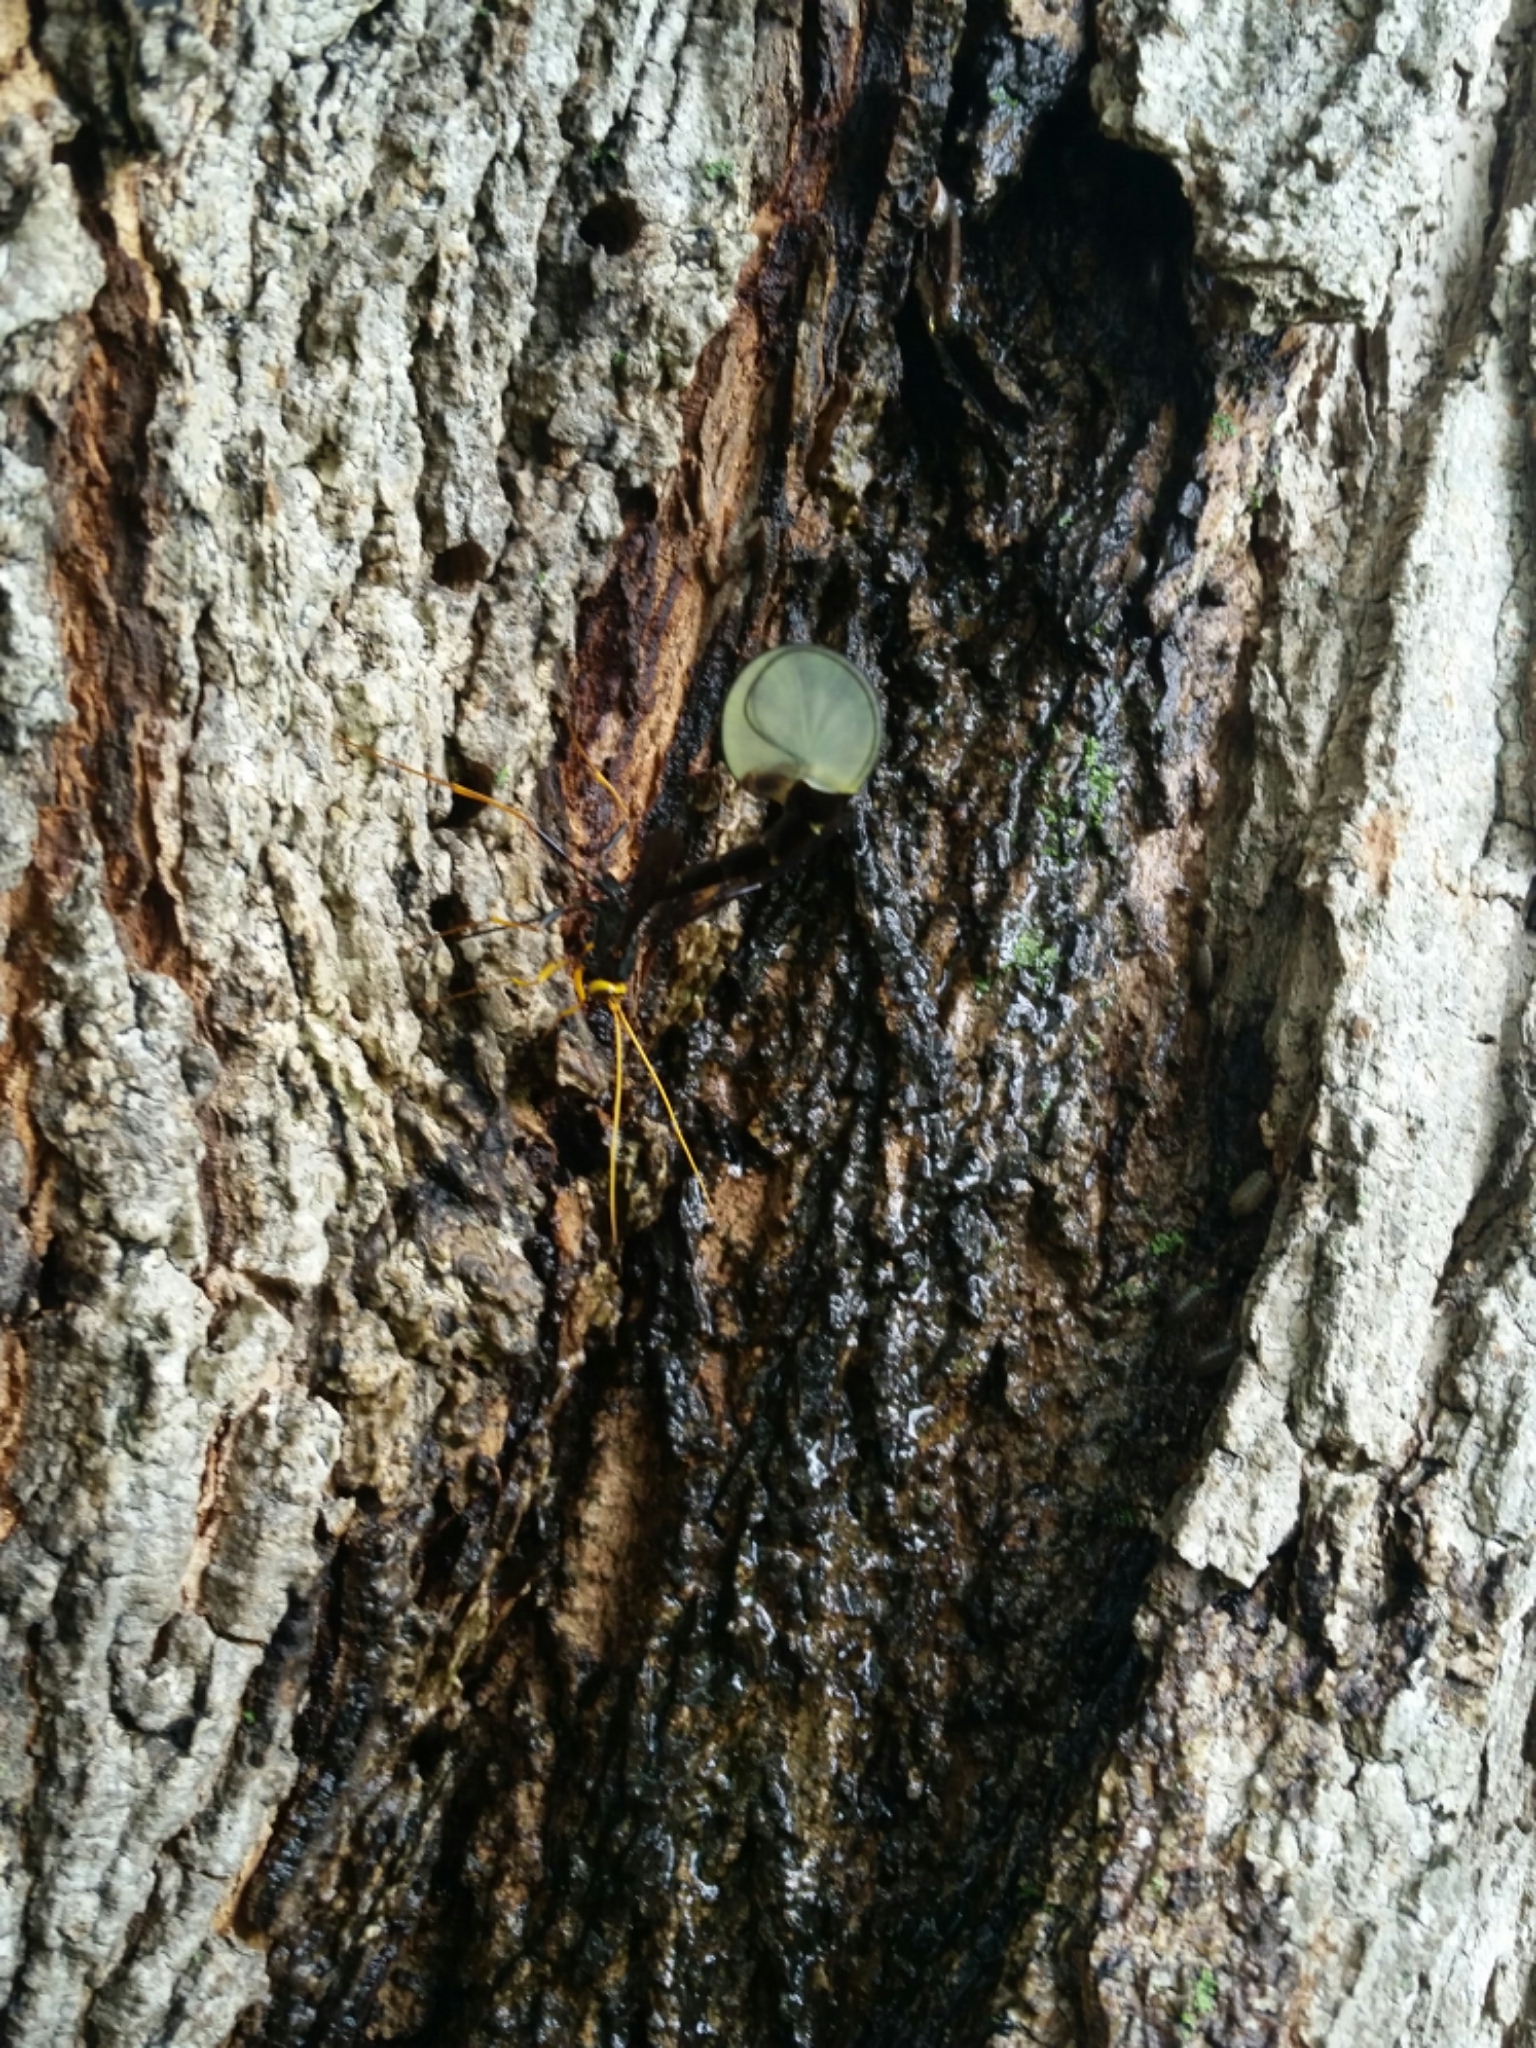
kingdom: Animalia
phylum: Arthropoda
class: Insecta
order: Hymenoptera
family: Ichneumonidae
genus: Megarhyssa
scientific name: Megarhyssa atrata
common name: Black giant ichneumonid wasp
